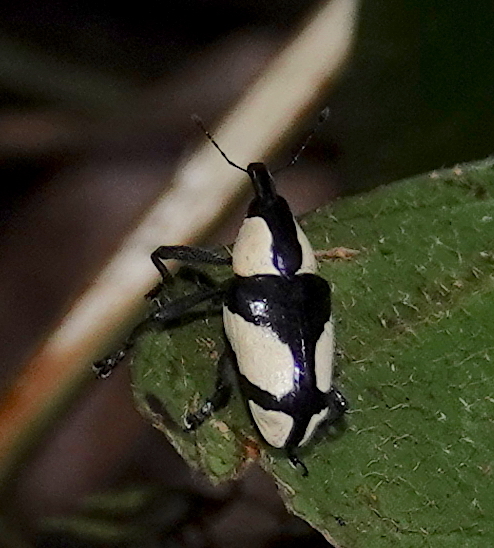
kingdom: Animalia
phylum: Arthropoda
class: Insecta
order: Coleoptera
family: Curculionidae
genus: Peridinetus
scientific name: Peridinetus cretaceus
